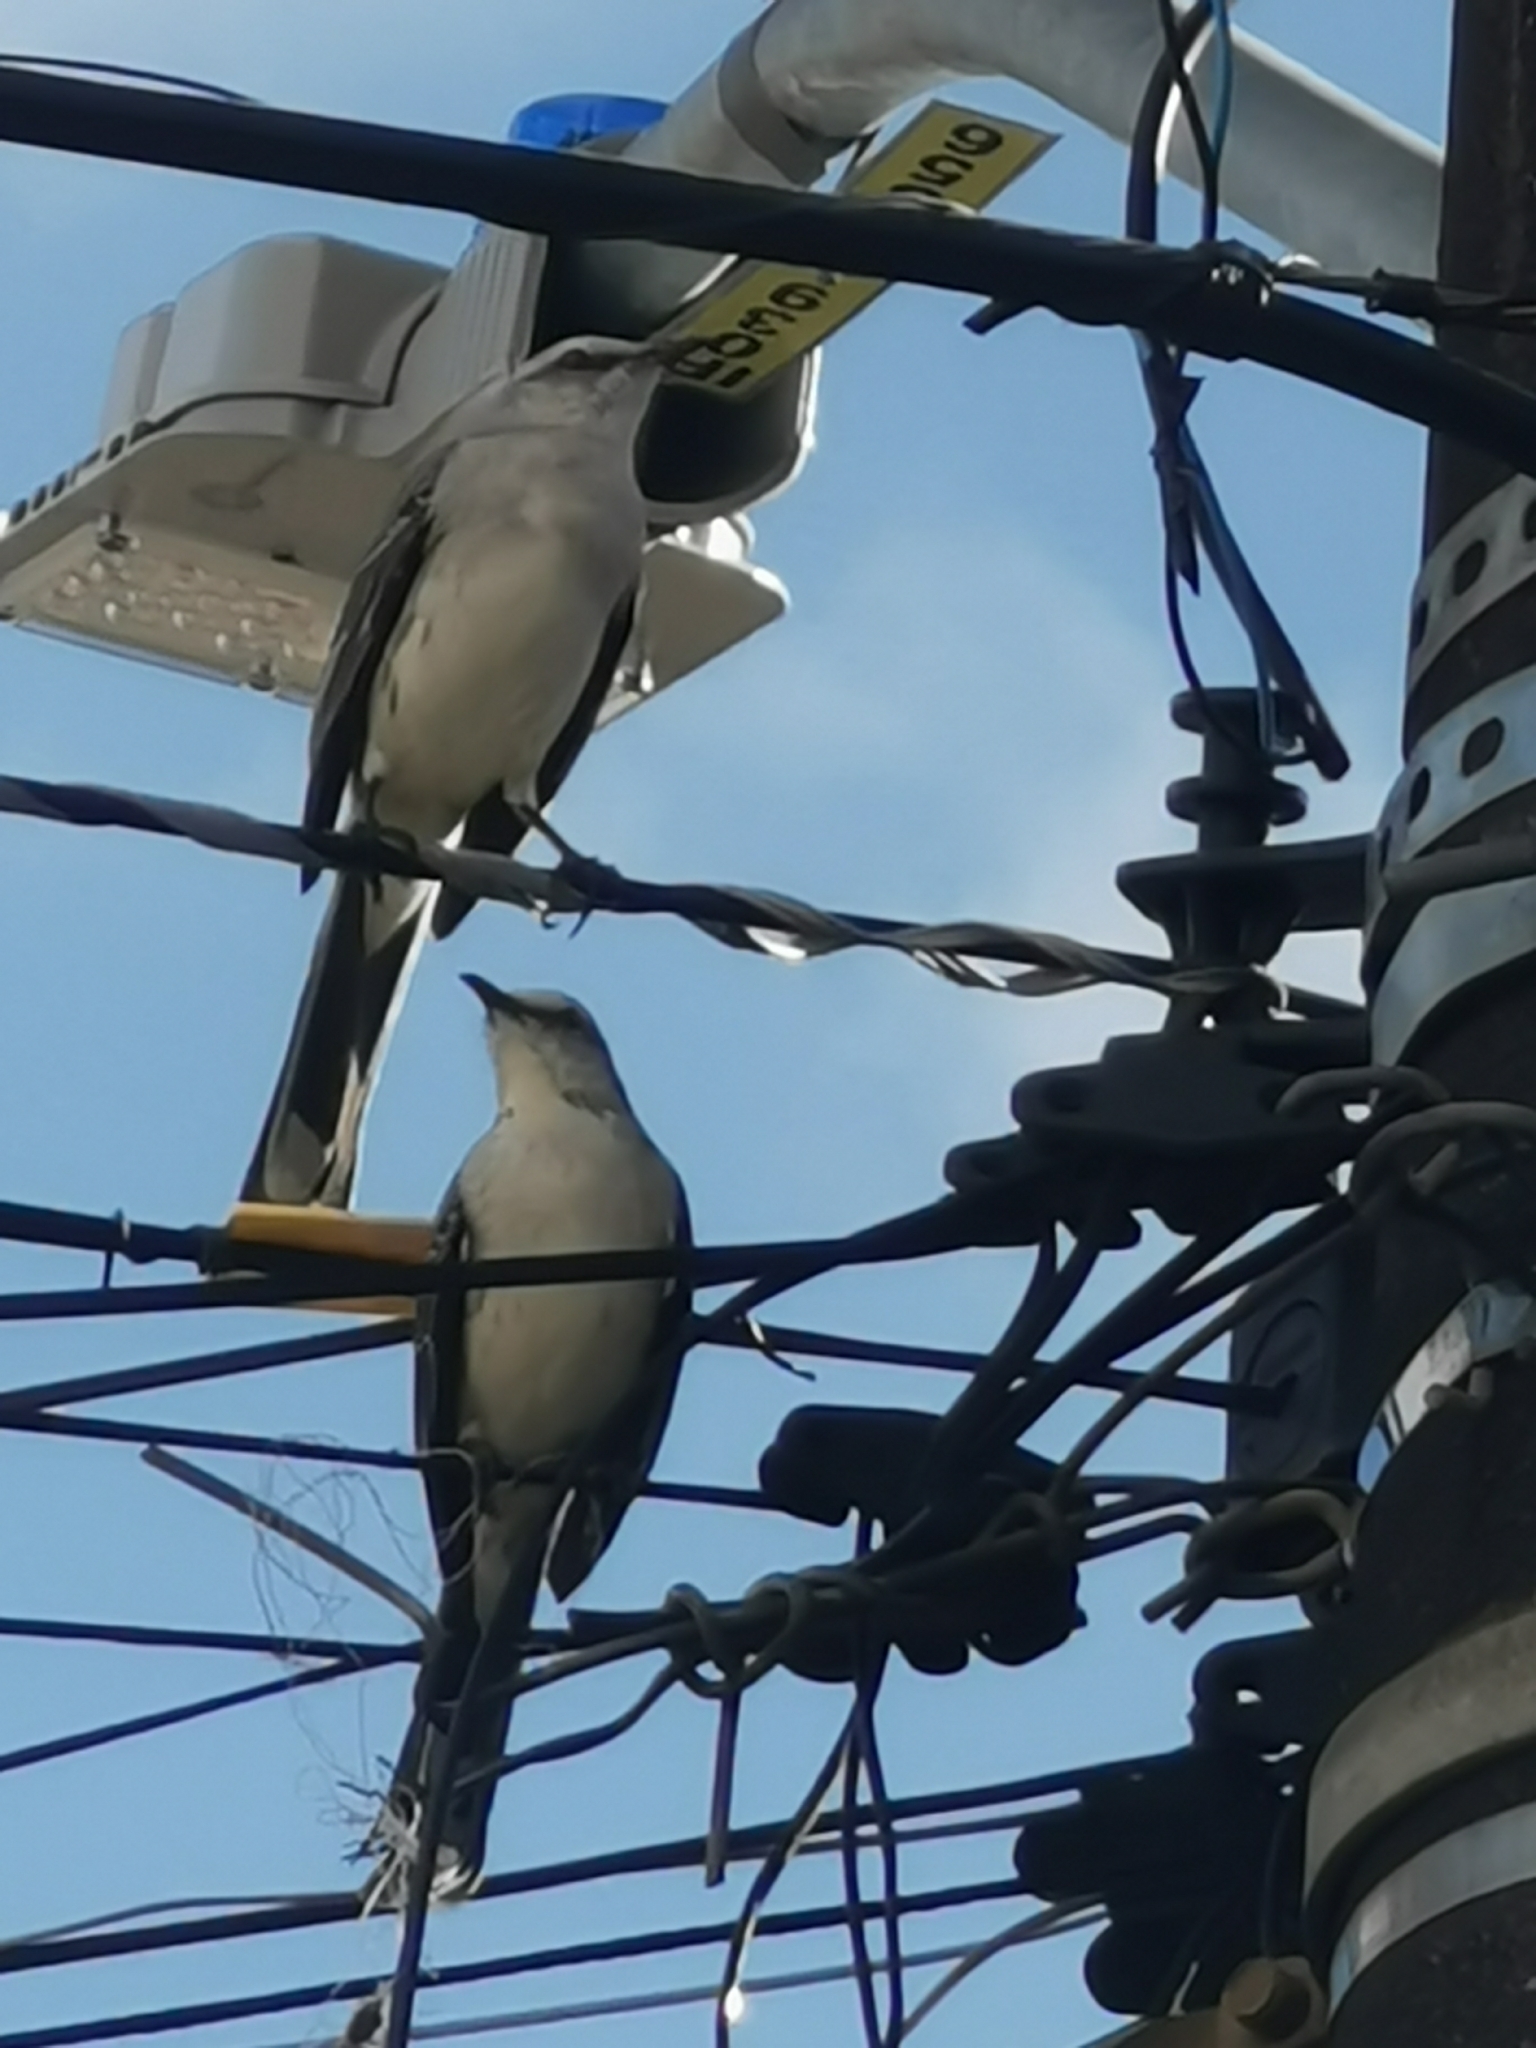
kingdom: Animalia
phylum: Chordata
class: Aves
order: Passeriformes
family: Mimidae
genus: Mimus
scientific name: Mimus gilvus
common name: Tropical mockingbird
